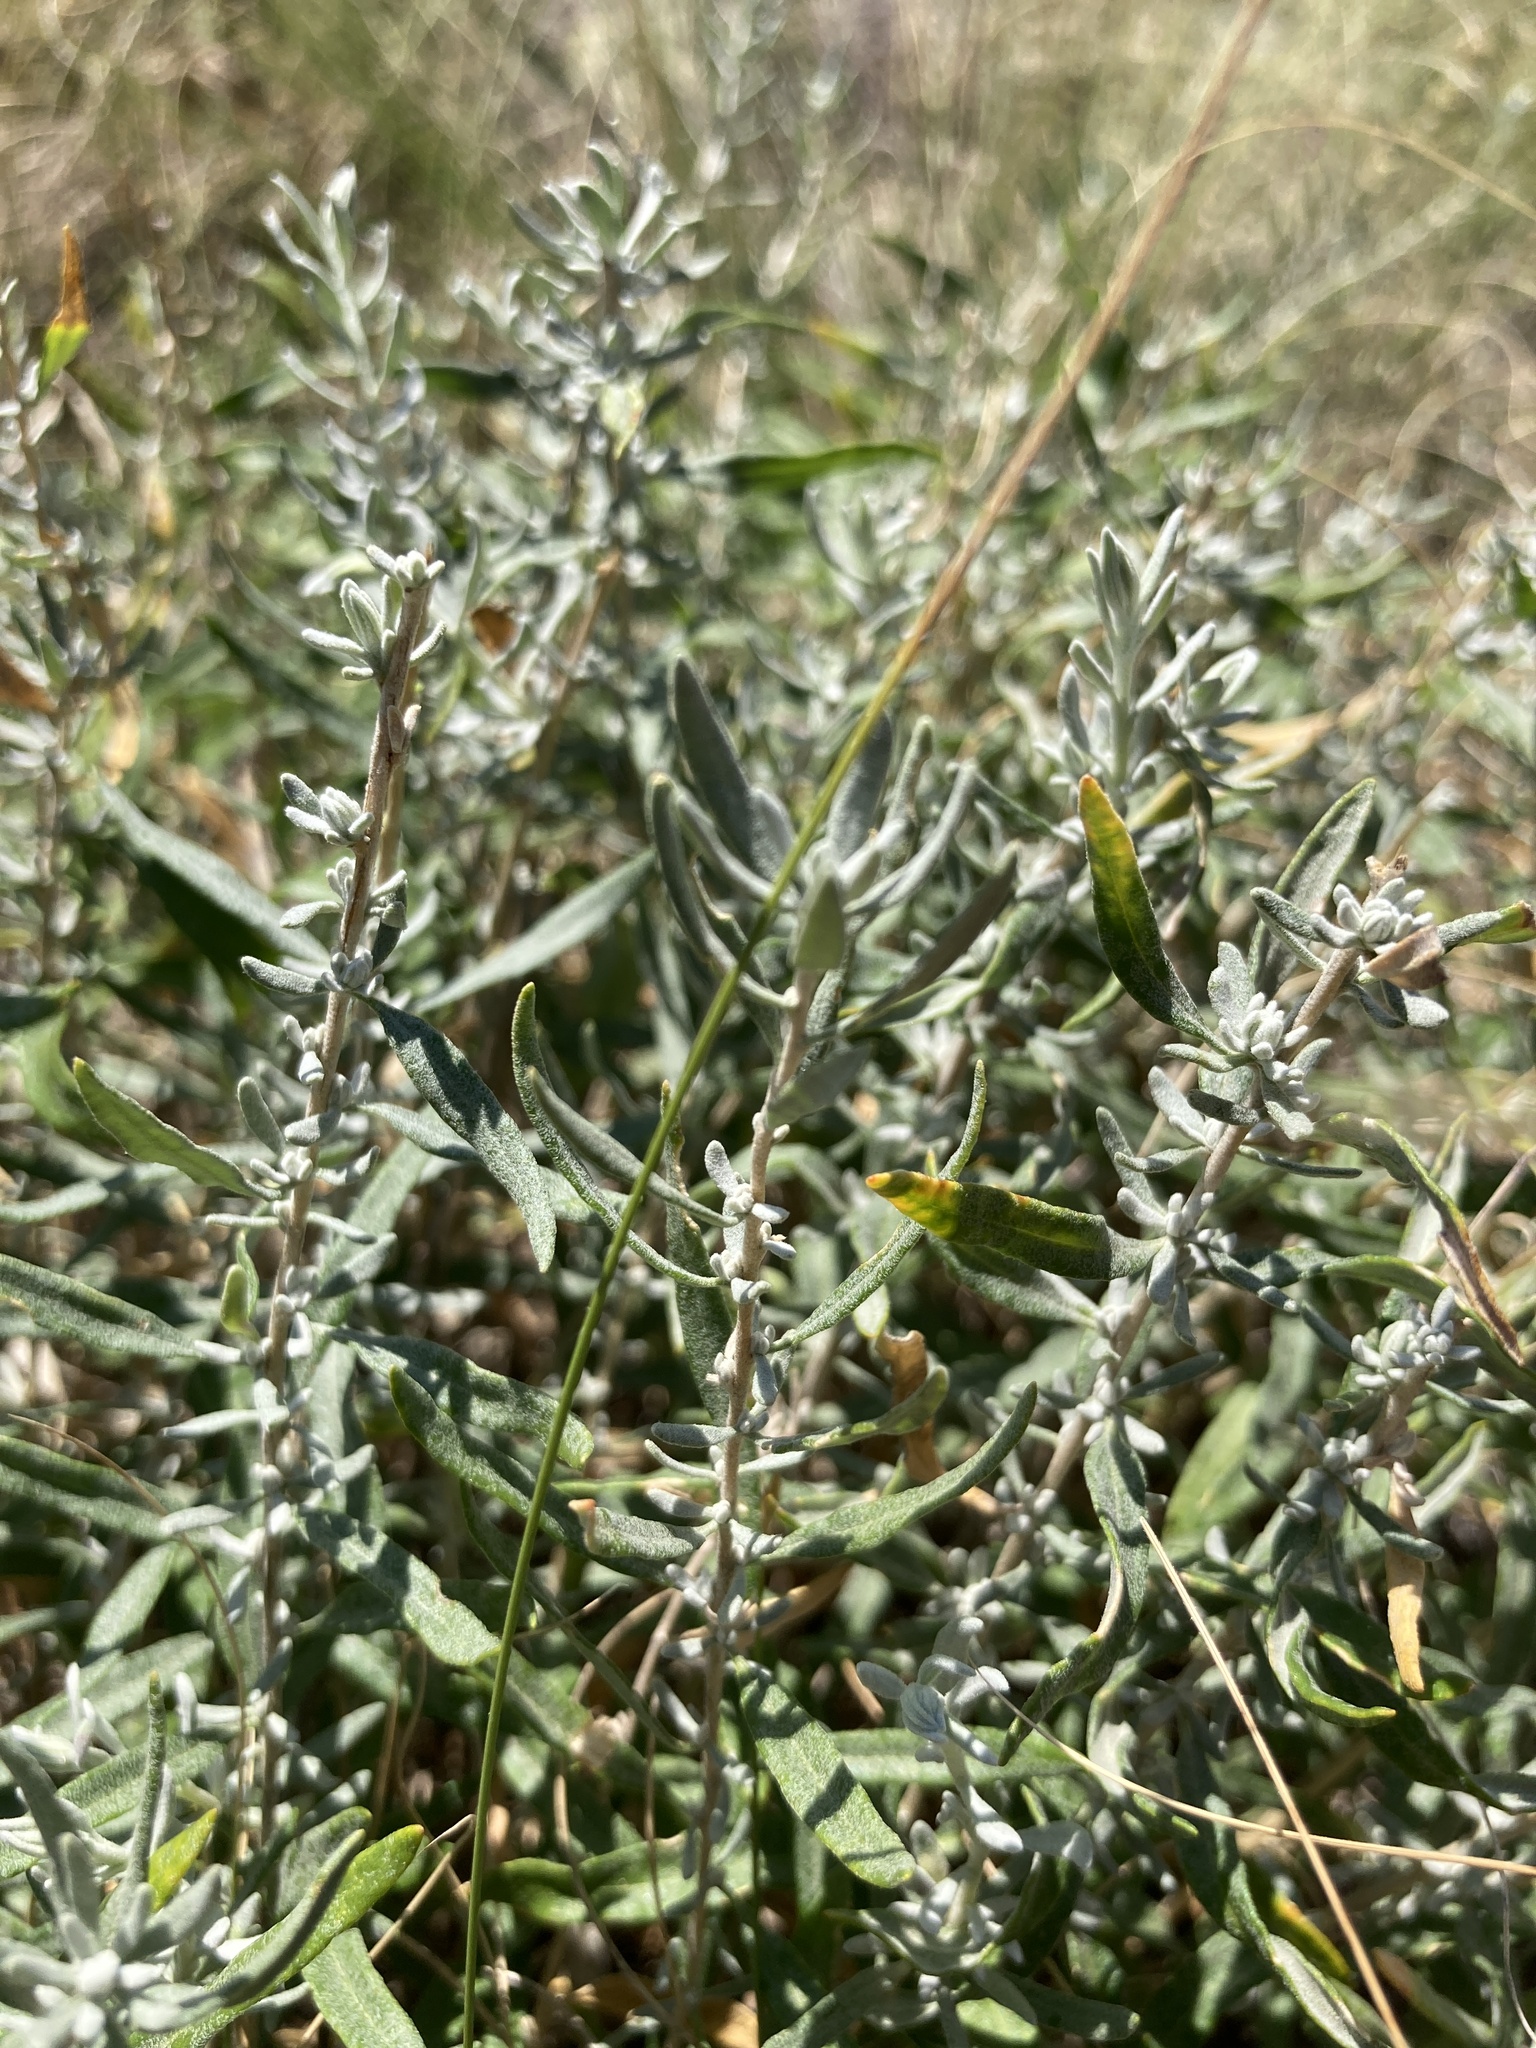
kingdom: Plantae
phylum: Tracheophyta
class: Magnoliopsida
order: Lamiales
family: Lamiaceae
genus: Teucrium
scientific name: Teucrium polium
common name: Poley
